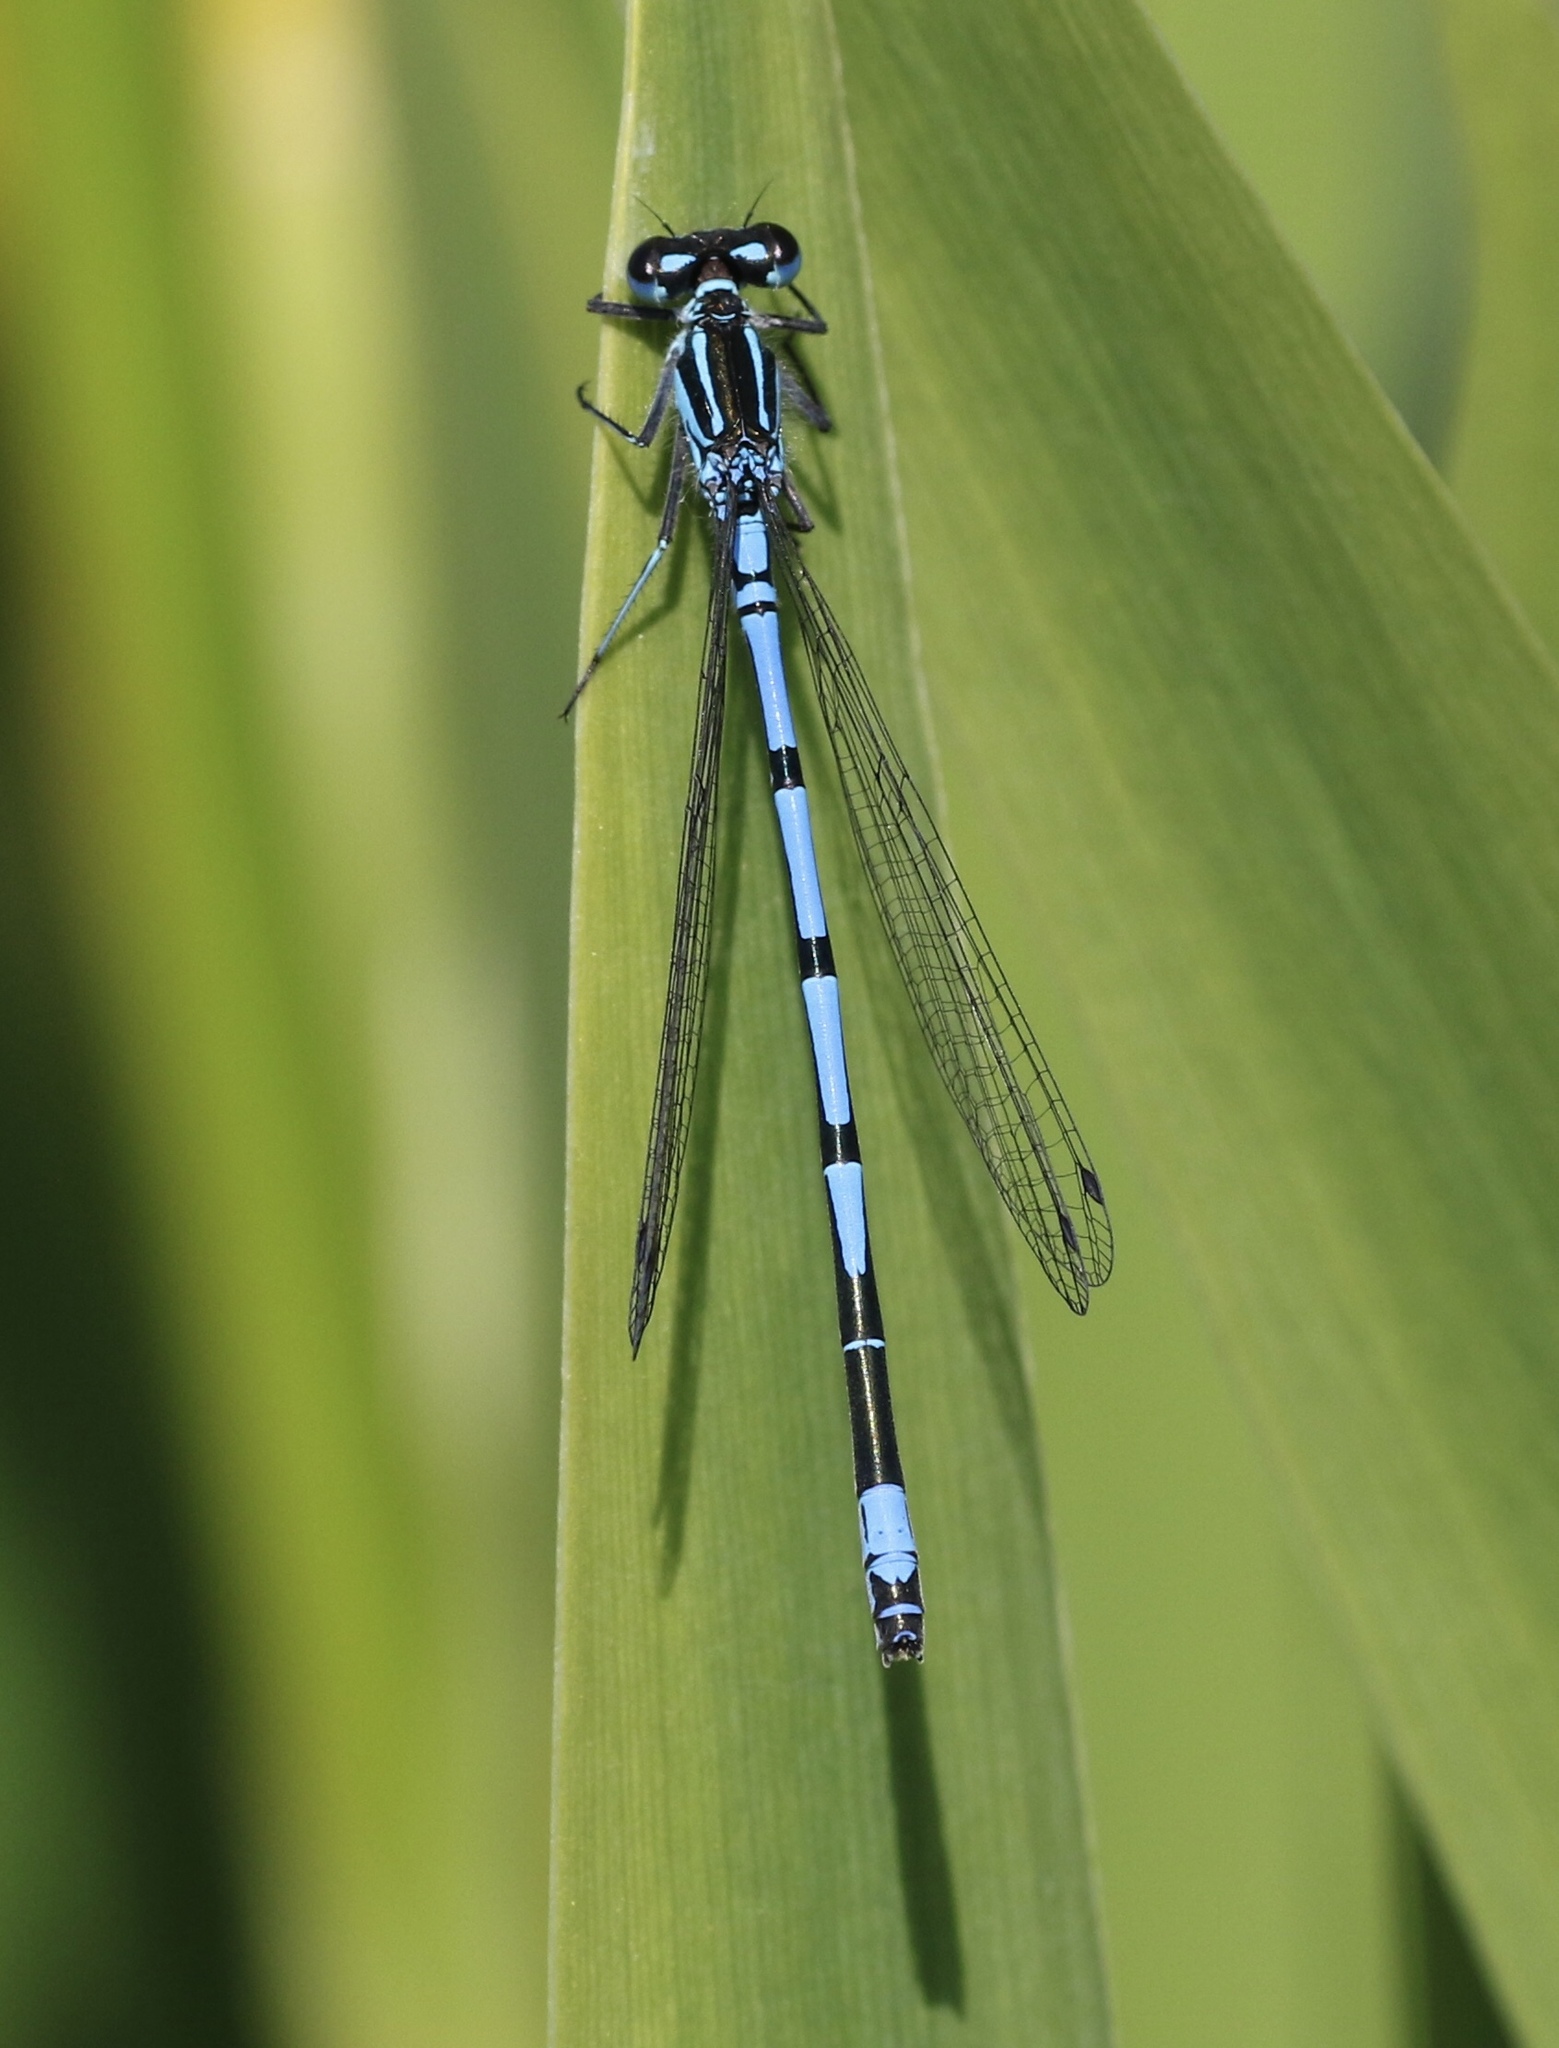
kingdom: Animalia
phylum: Arthropoda
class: Insecta
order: Odonata
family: Coenagrionidae
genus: Coenagrion
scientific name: Coenagrion puella
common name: Azure damselfly
